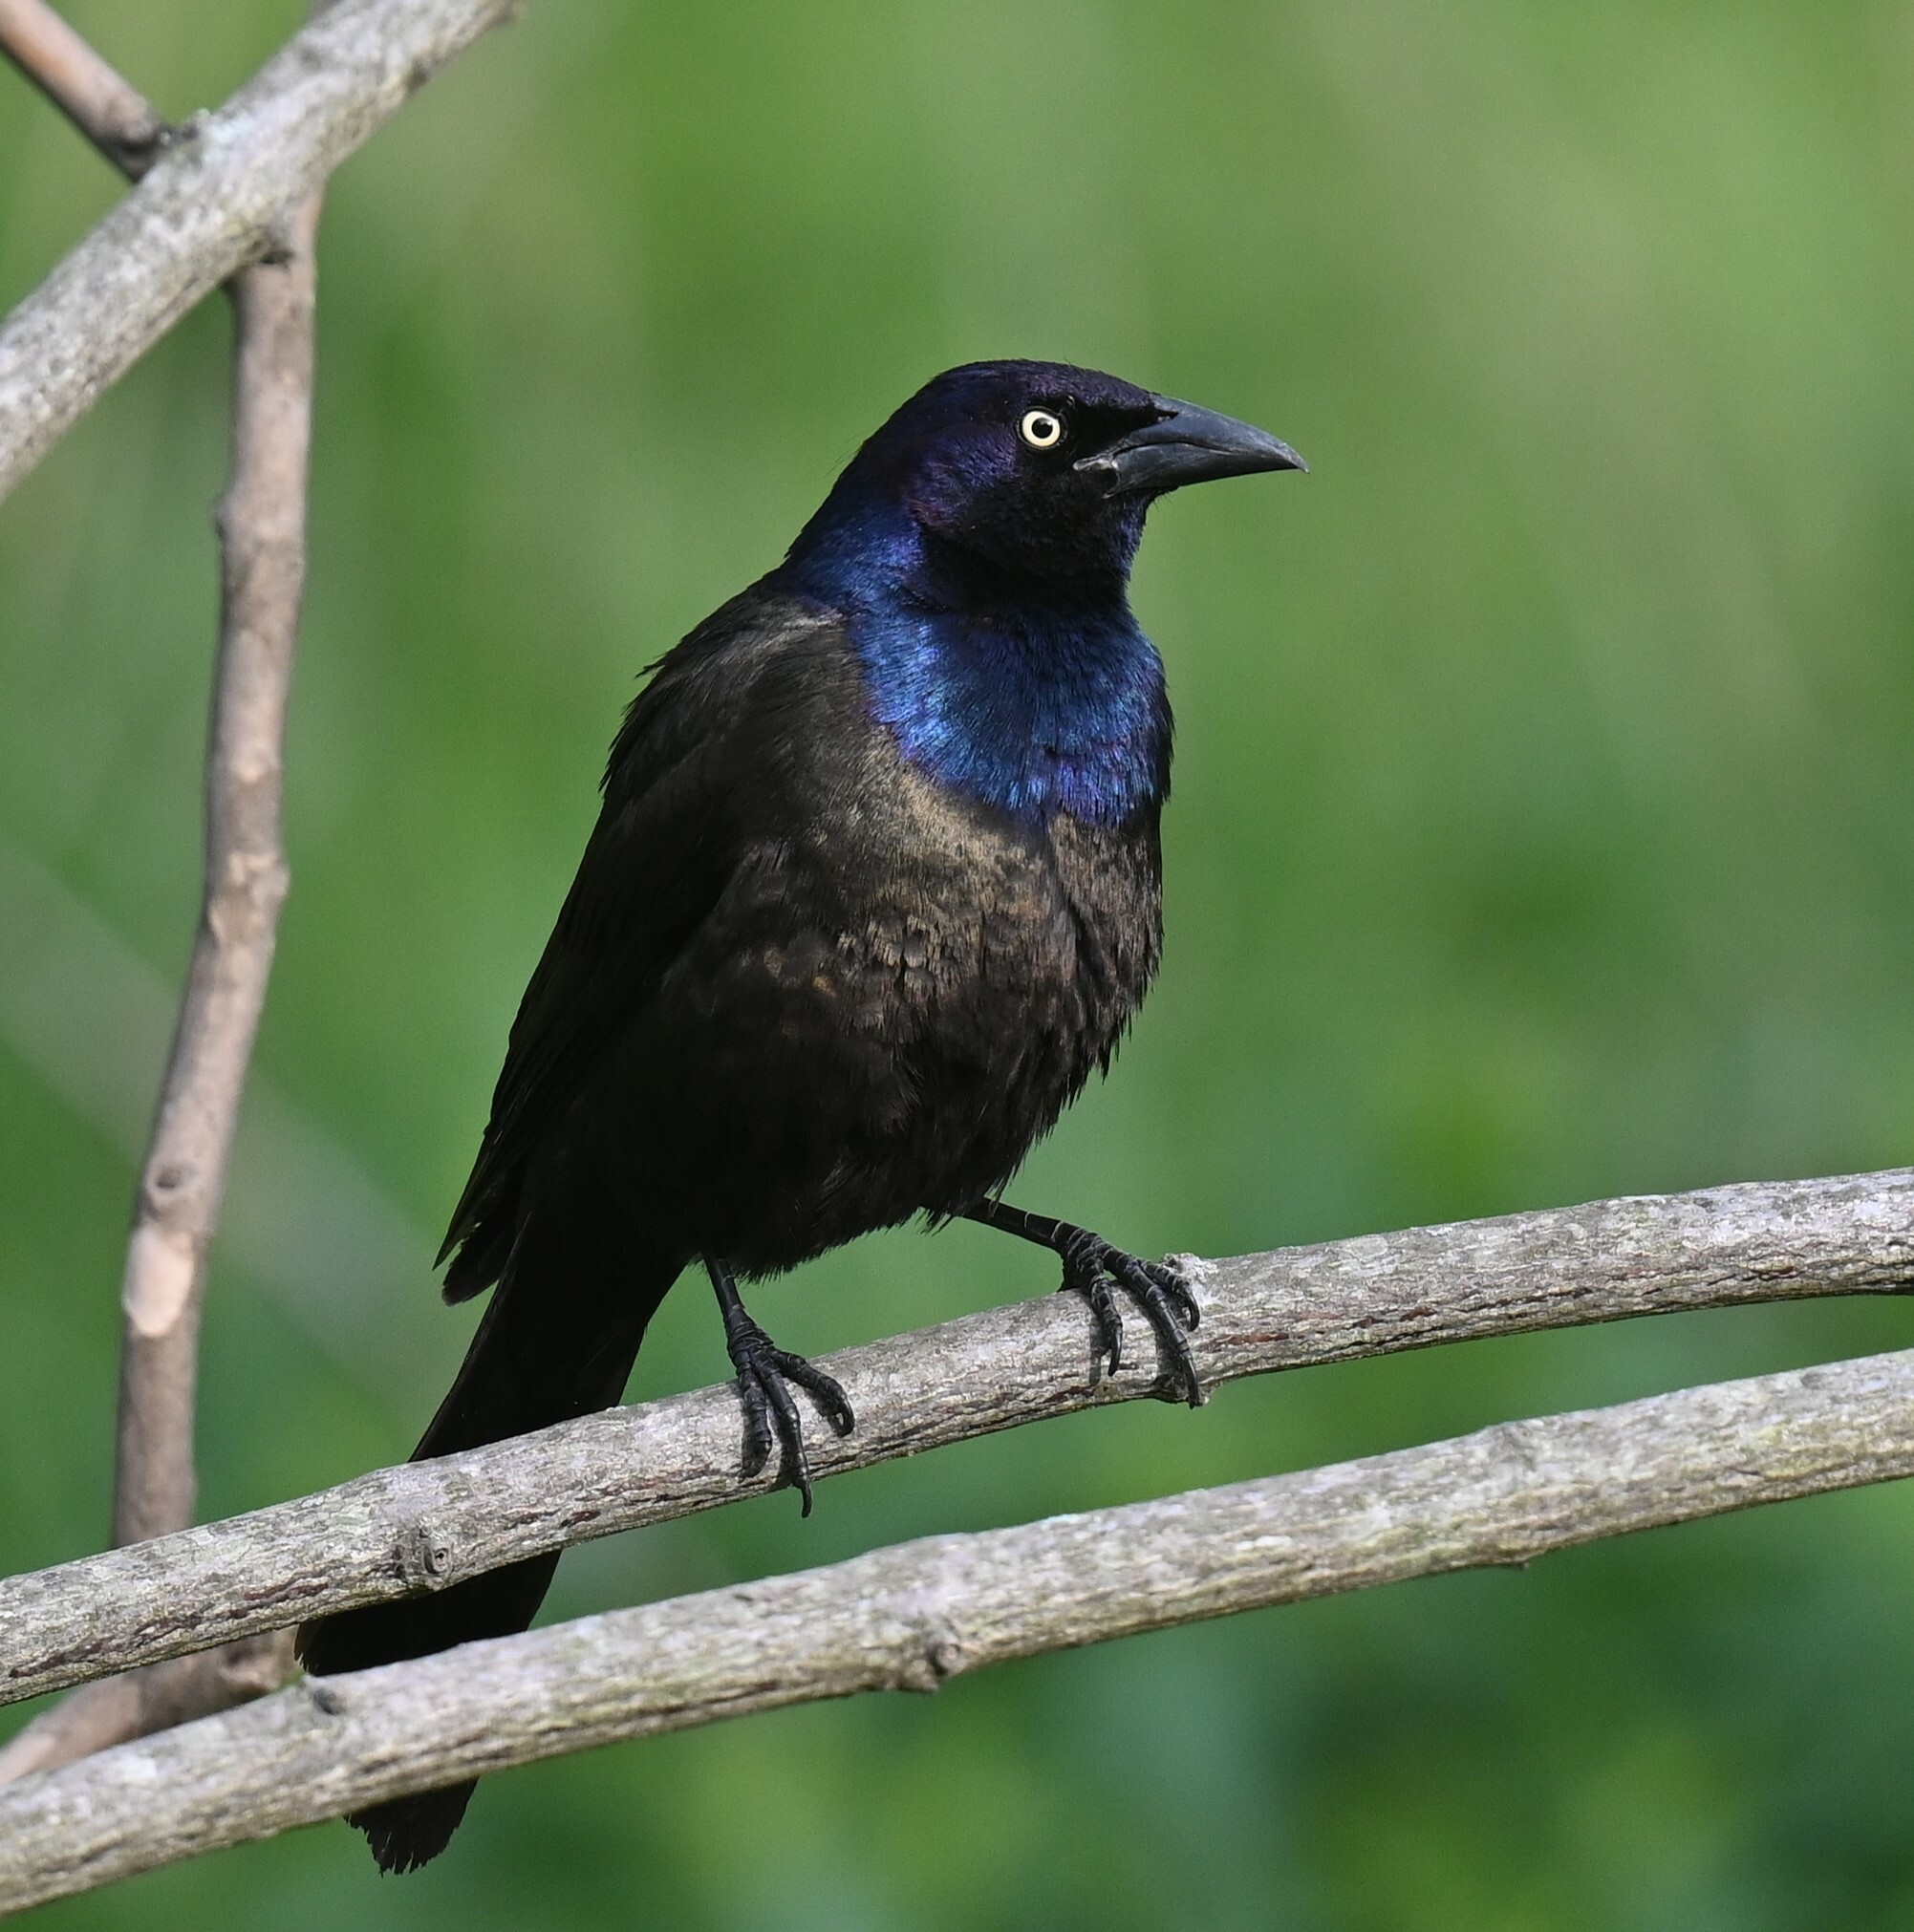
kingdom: Animalia
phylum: Chordata
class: Aves
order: Passeriformes
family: Icteridae
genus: Quiscalus
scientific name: Quiscalus quiscula
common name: Common grackle
